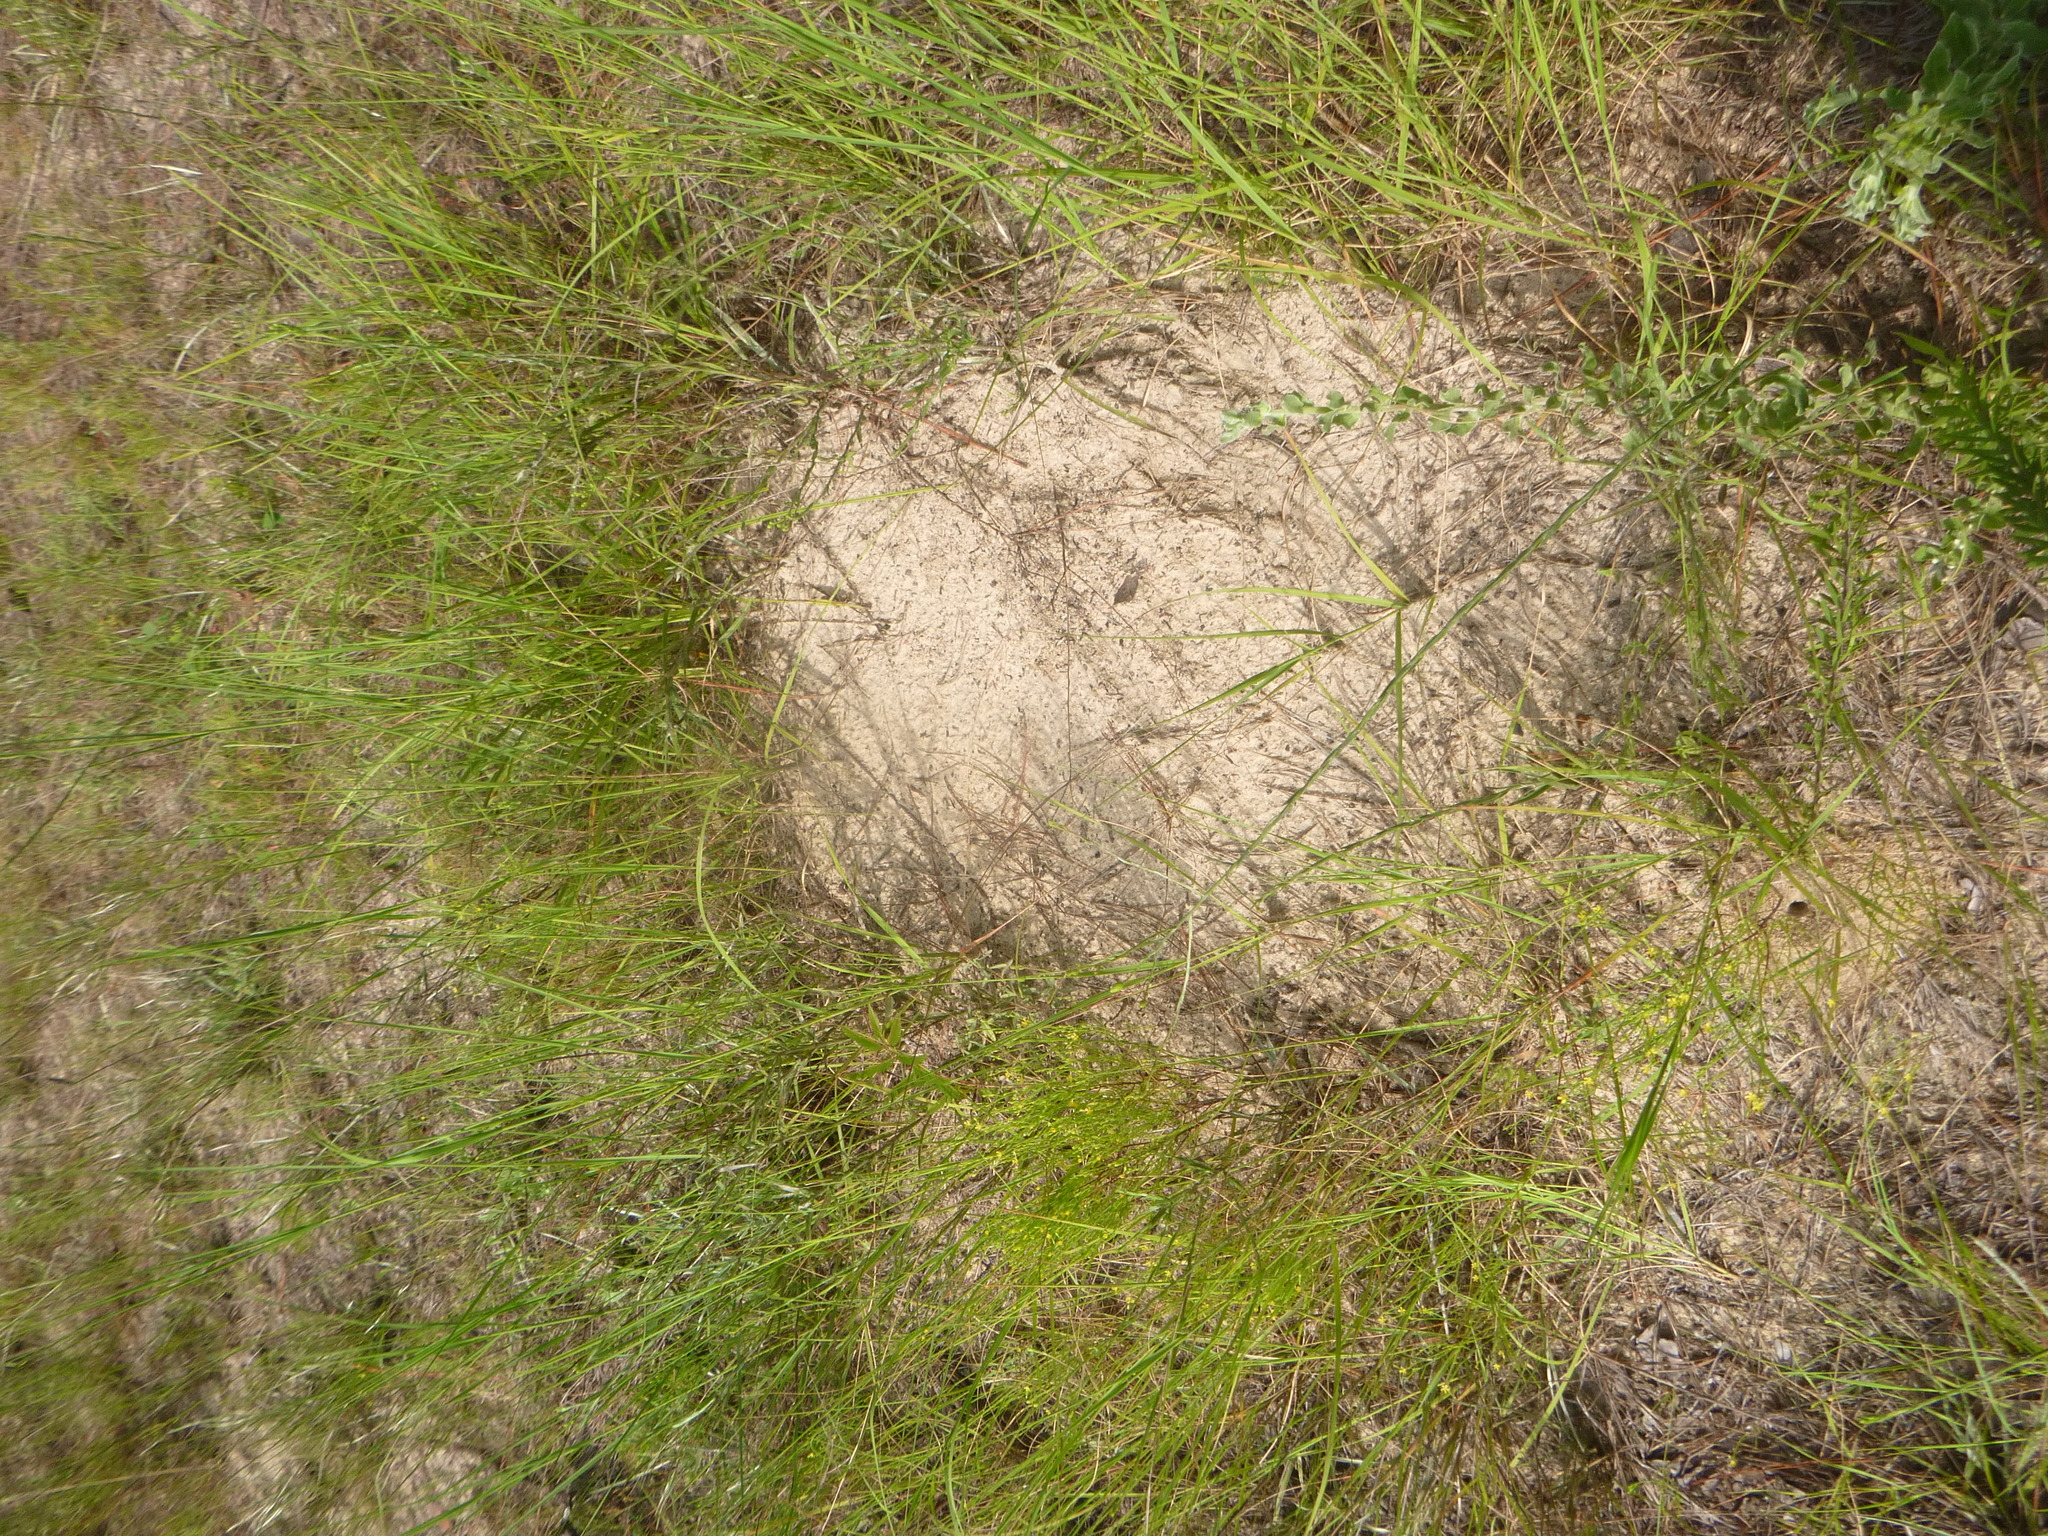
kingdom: Animalia
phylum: Arthropoda
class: Insecta
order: Hymenoptera
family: Formicidae
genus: Solenopsis
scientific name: Solenopsis invicta
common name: Red imported fire ant
